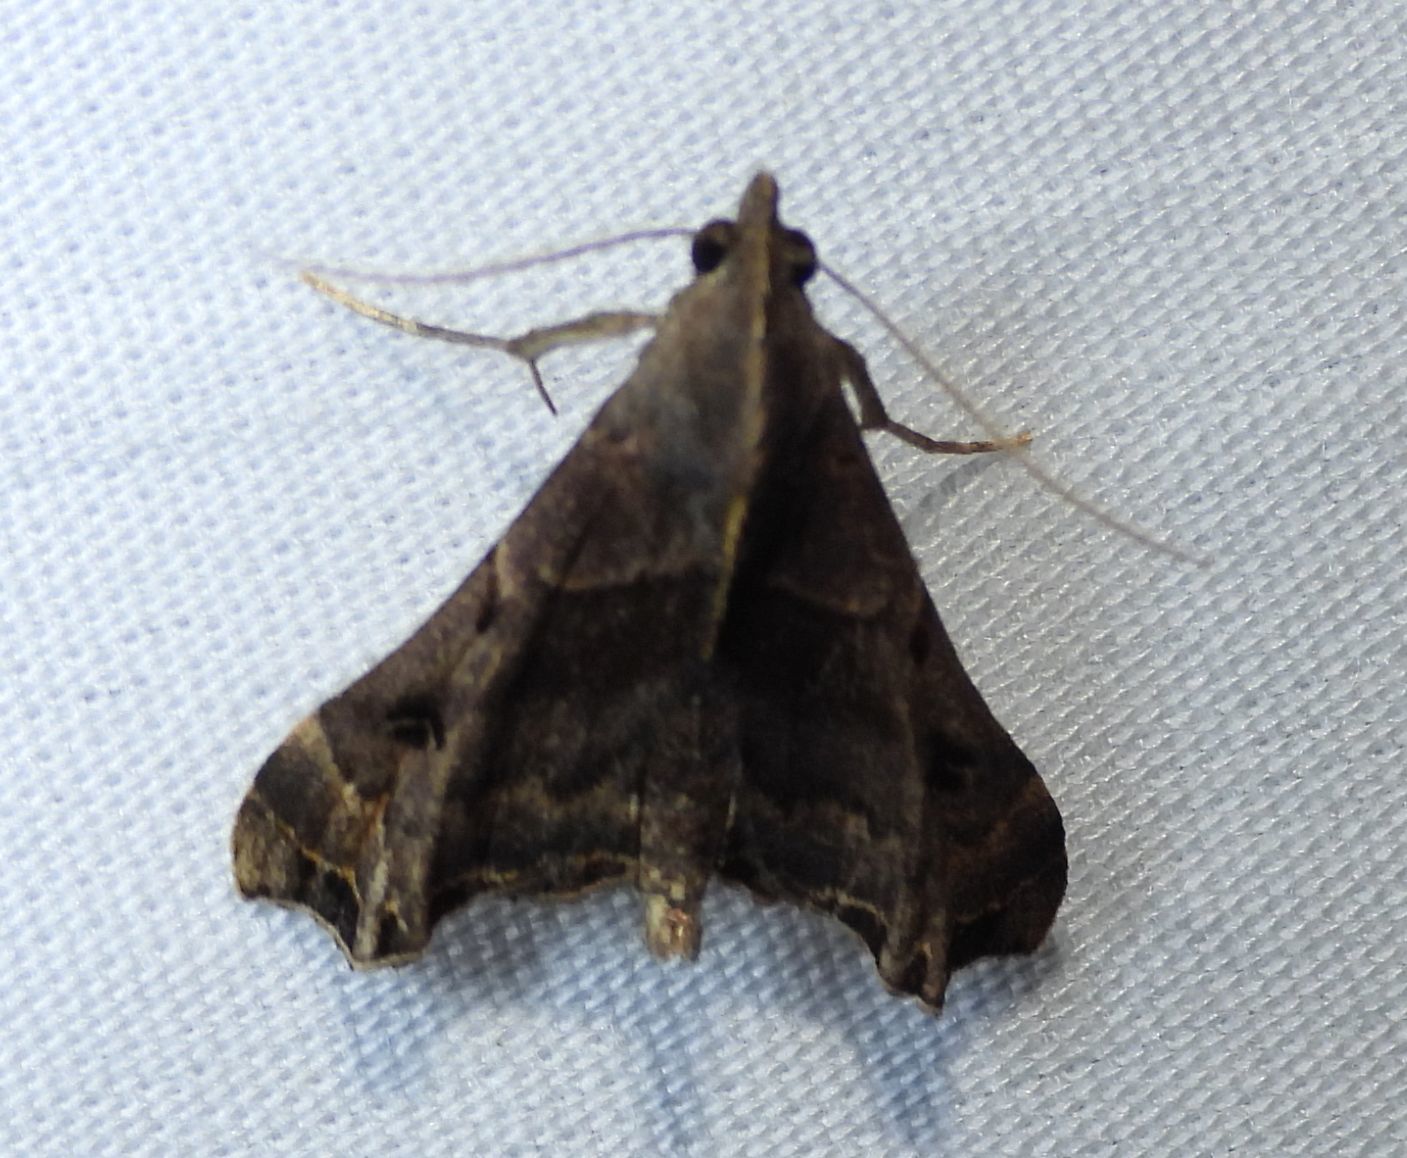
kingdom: Animalia
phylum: Arthropoda
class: Insecta
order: Lepidoptera
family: Erebidae
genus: Palthis
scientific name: Palthis asopialis
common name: Faint-spotted palthis moth
